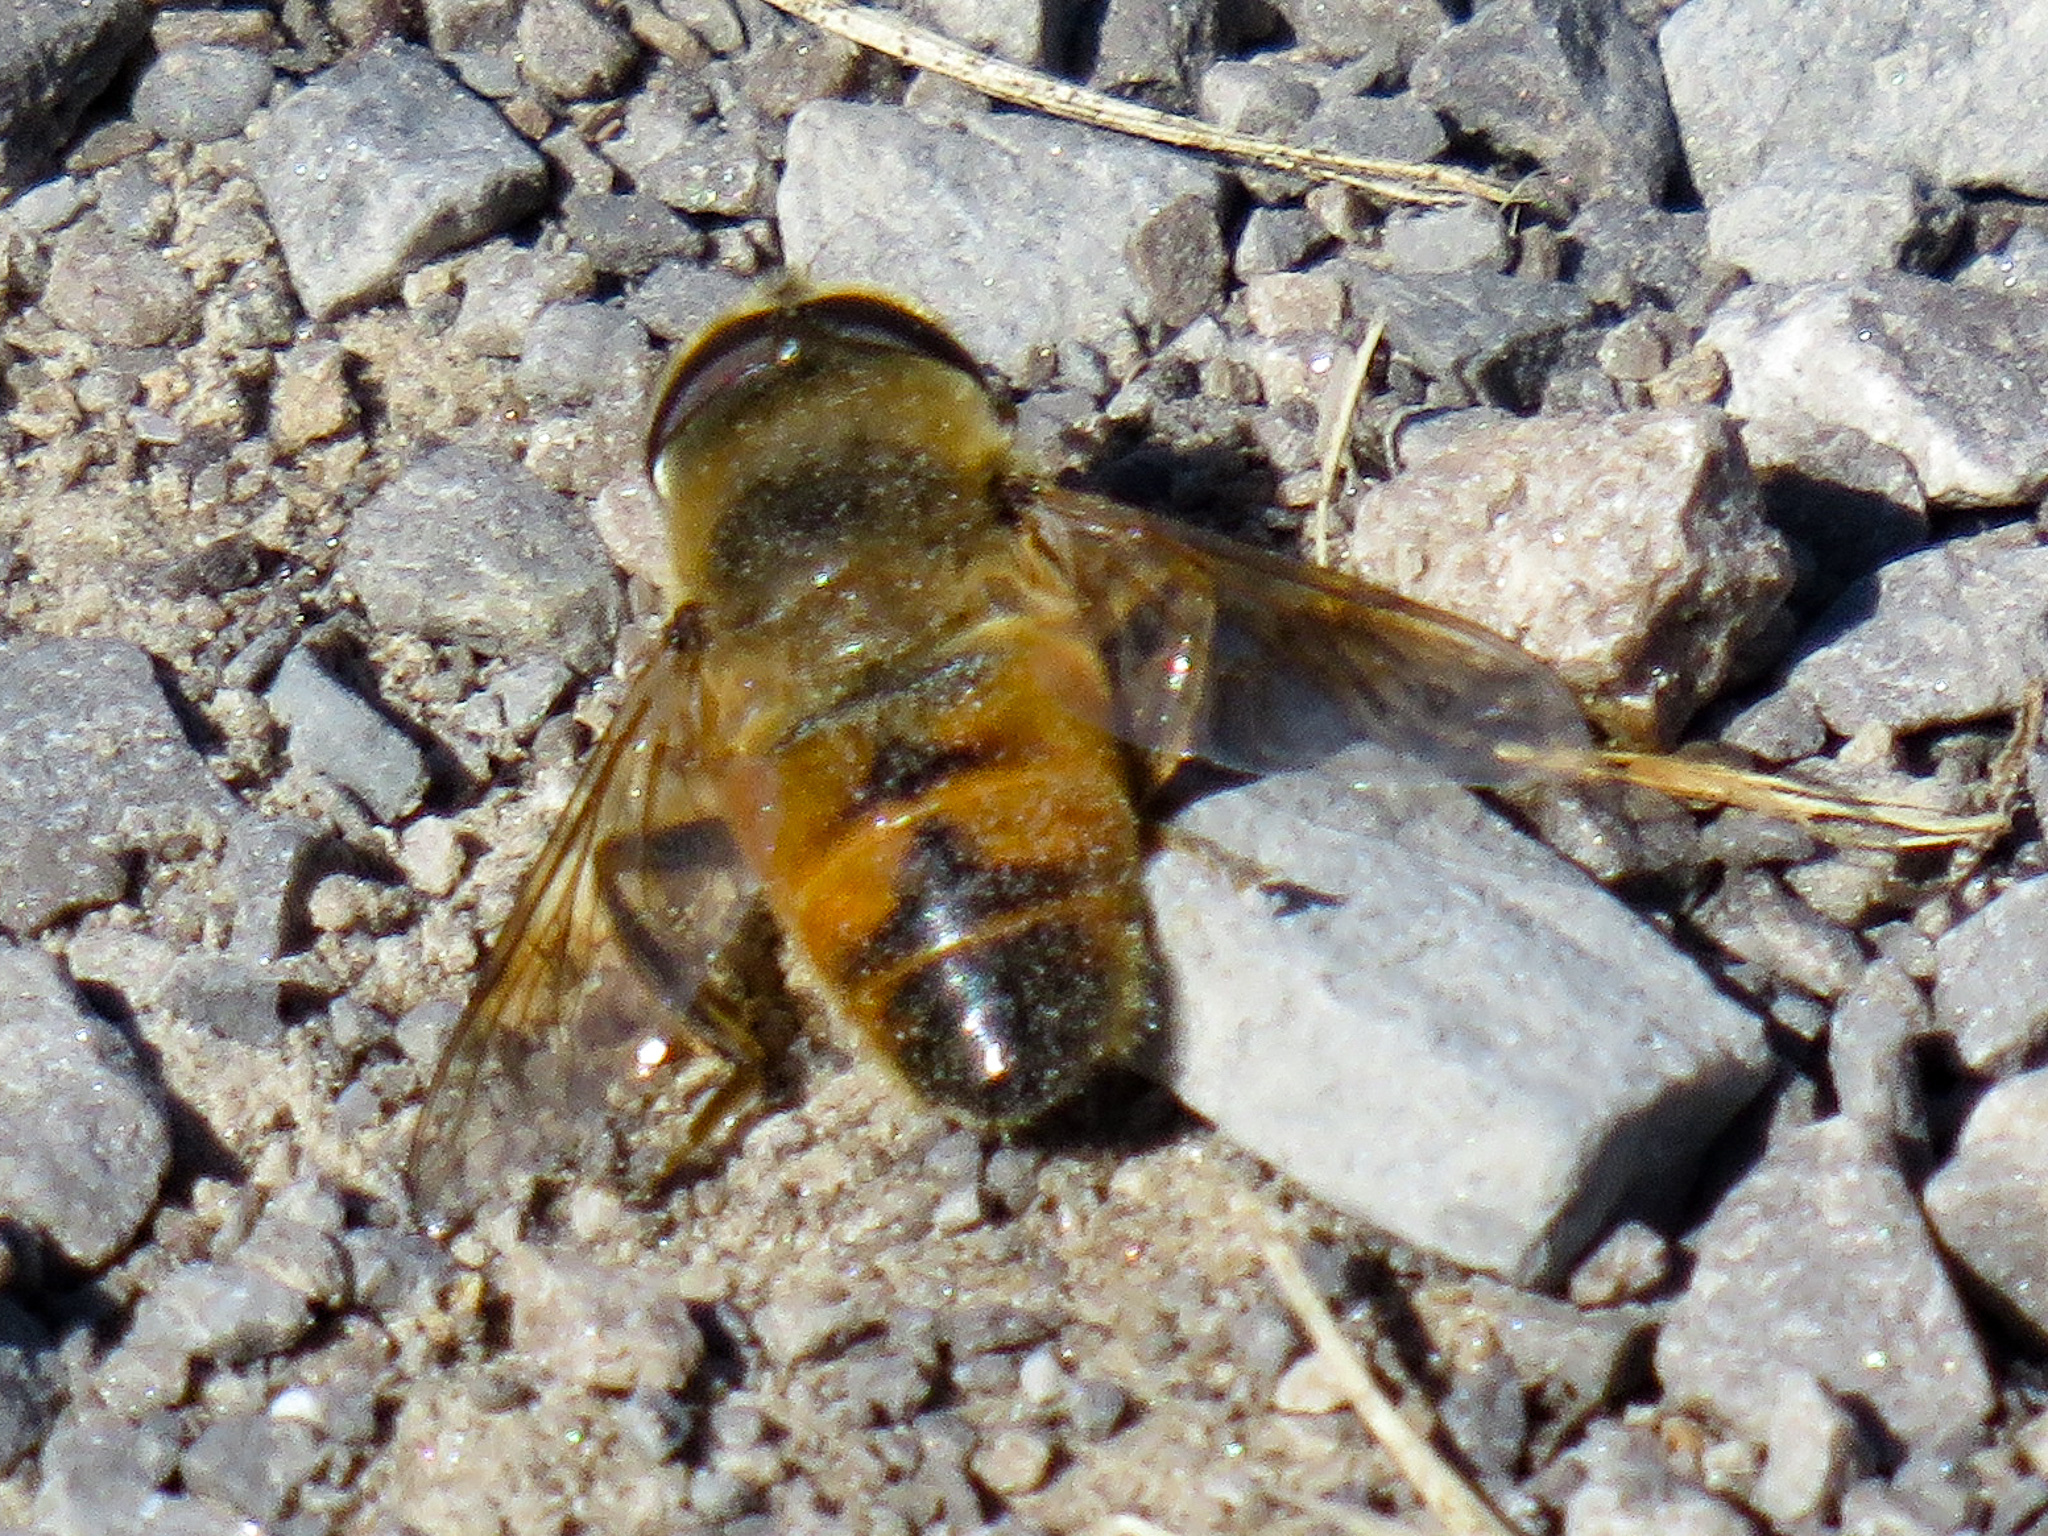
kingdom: Animalia
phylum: Arthropoda
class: Insecta
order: Diptera
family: Syrphidae
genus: Eristalis
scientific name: Eristalis tenax
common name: Drone fly
